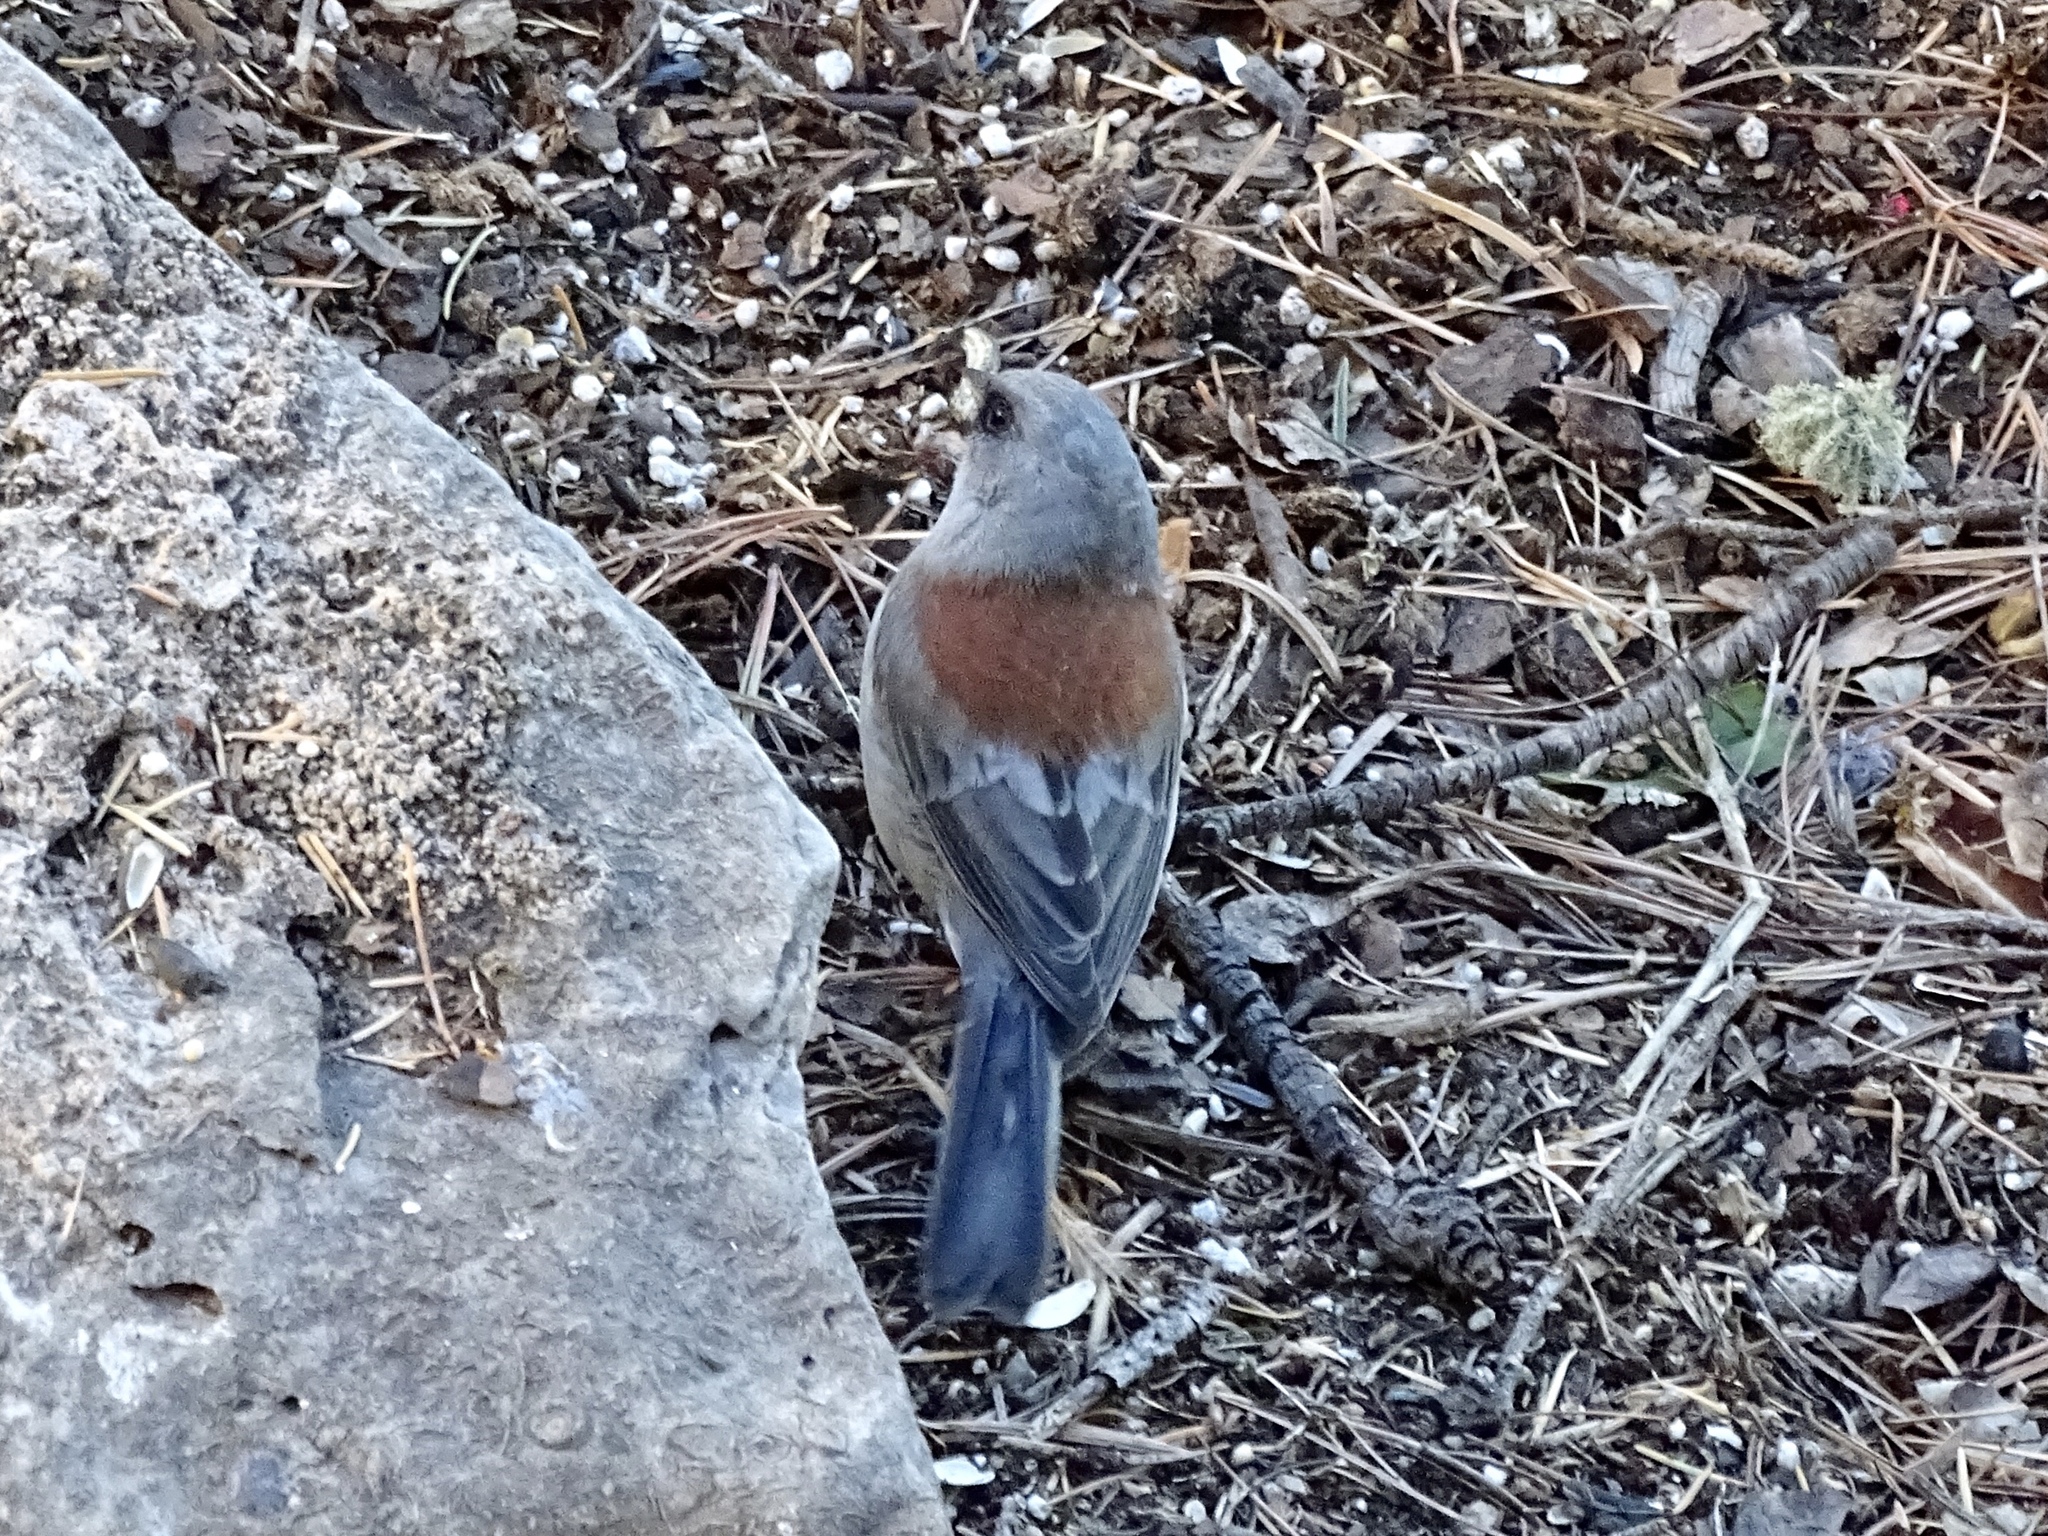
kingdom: Animalia
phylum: Chordata
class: Aves
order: Passeriformes
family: Passerellidae
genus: Junco
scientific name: Junco hyemalis
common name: Dark-eyed junco
